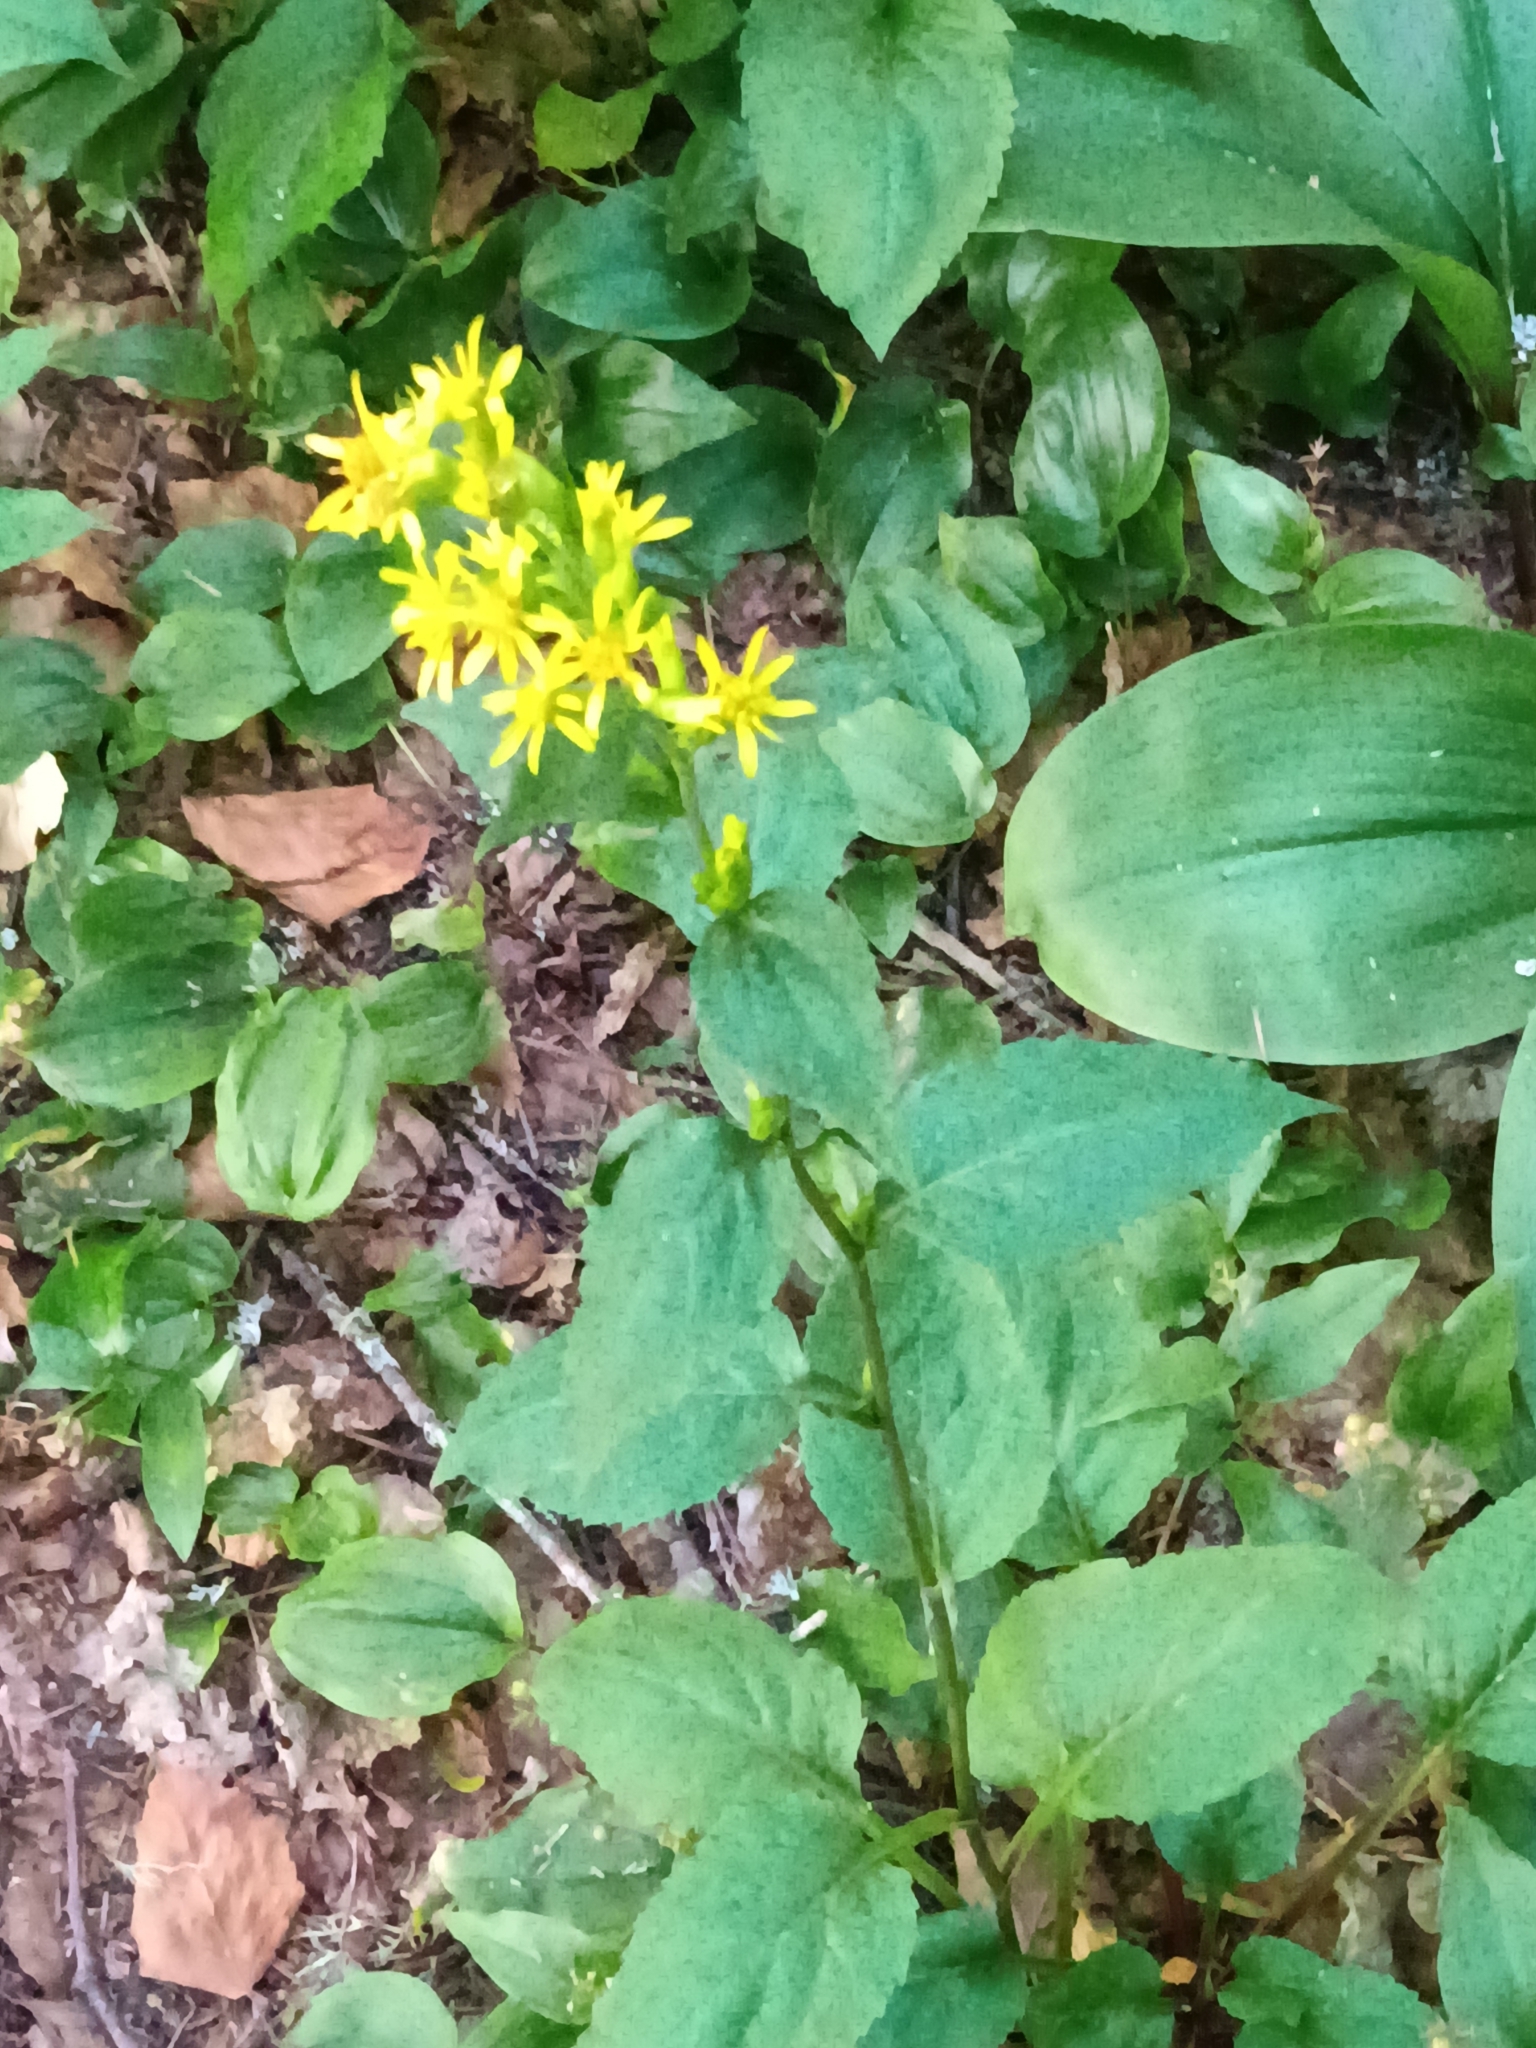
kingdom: Plantae
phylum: Tracheophyta
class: Magnoliopsida
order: Asterales
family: Asteraceae
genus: Solidago
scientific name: Solidago macrophylla
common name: Large-leaved goldenrod
